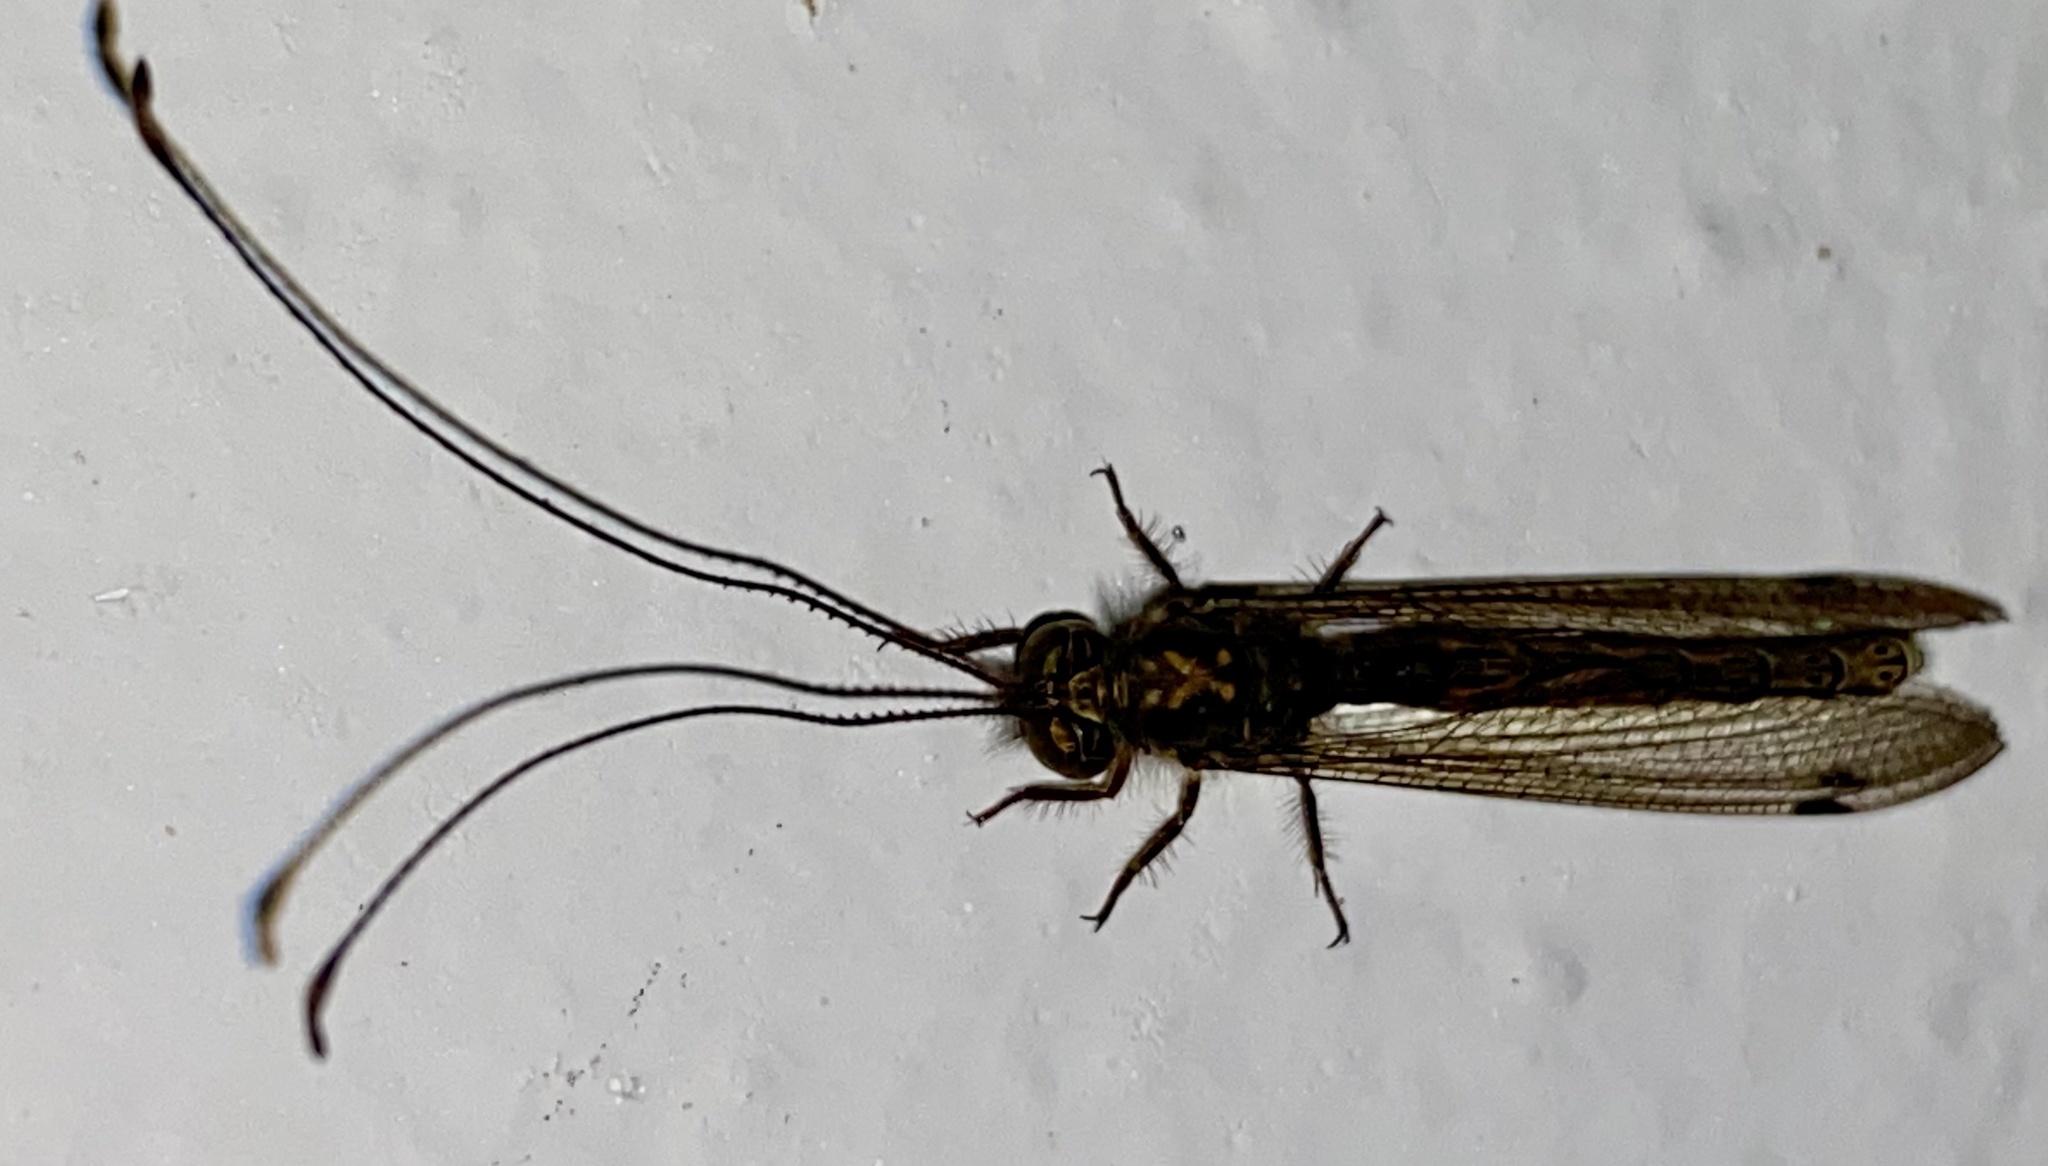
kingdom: Animalia
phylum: Arthropoda
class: Insecta
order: Neuroptera
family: Ascalaphidae
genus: Ascalorphne
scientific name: Ascalorphne macrocerca
